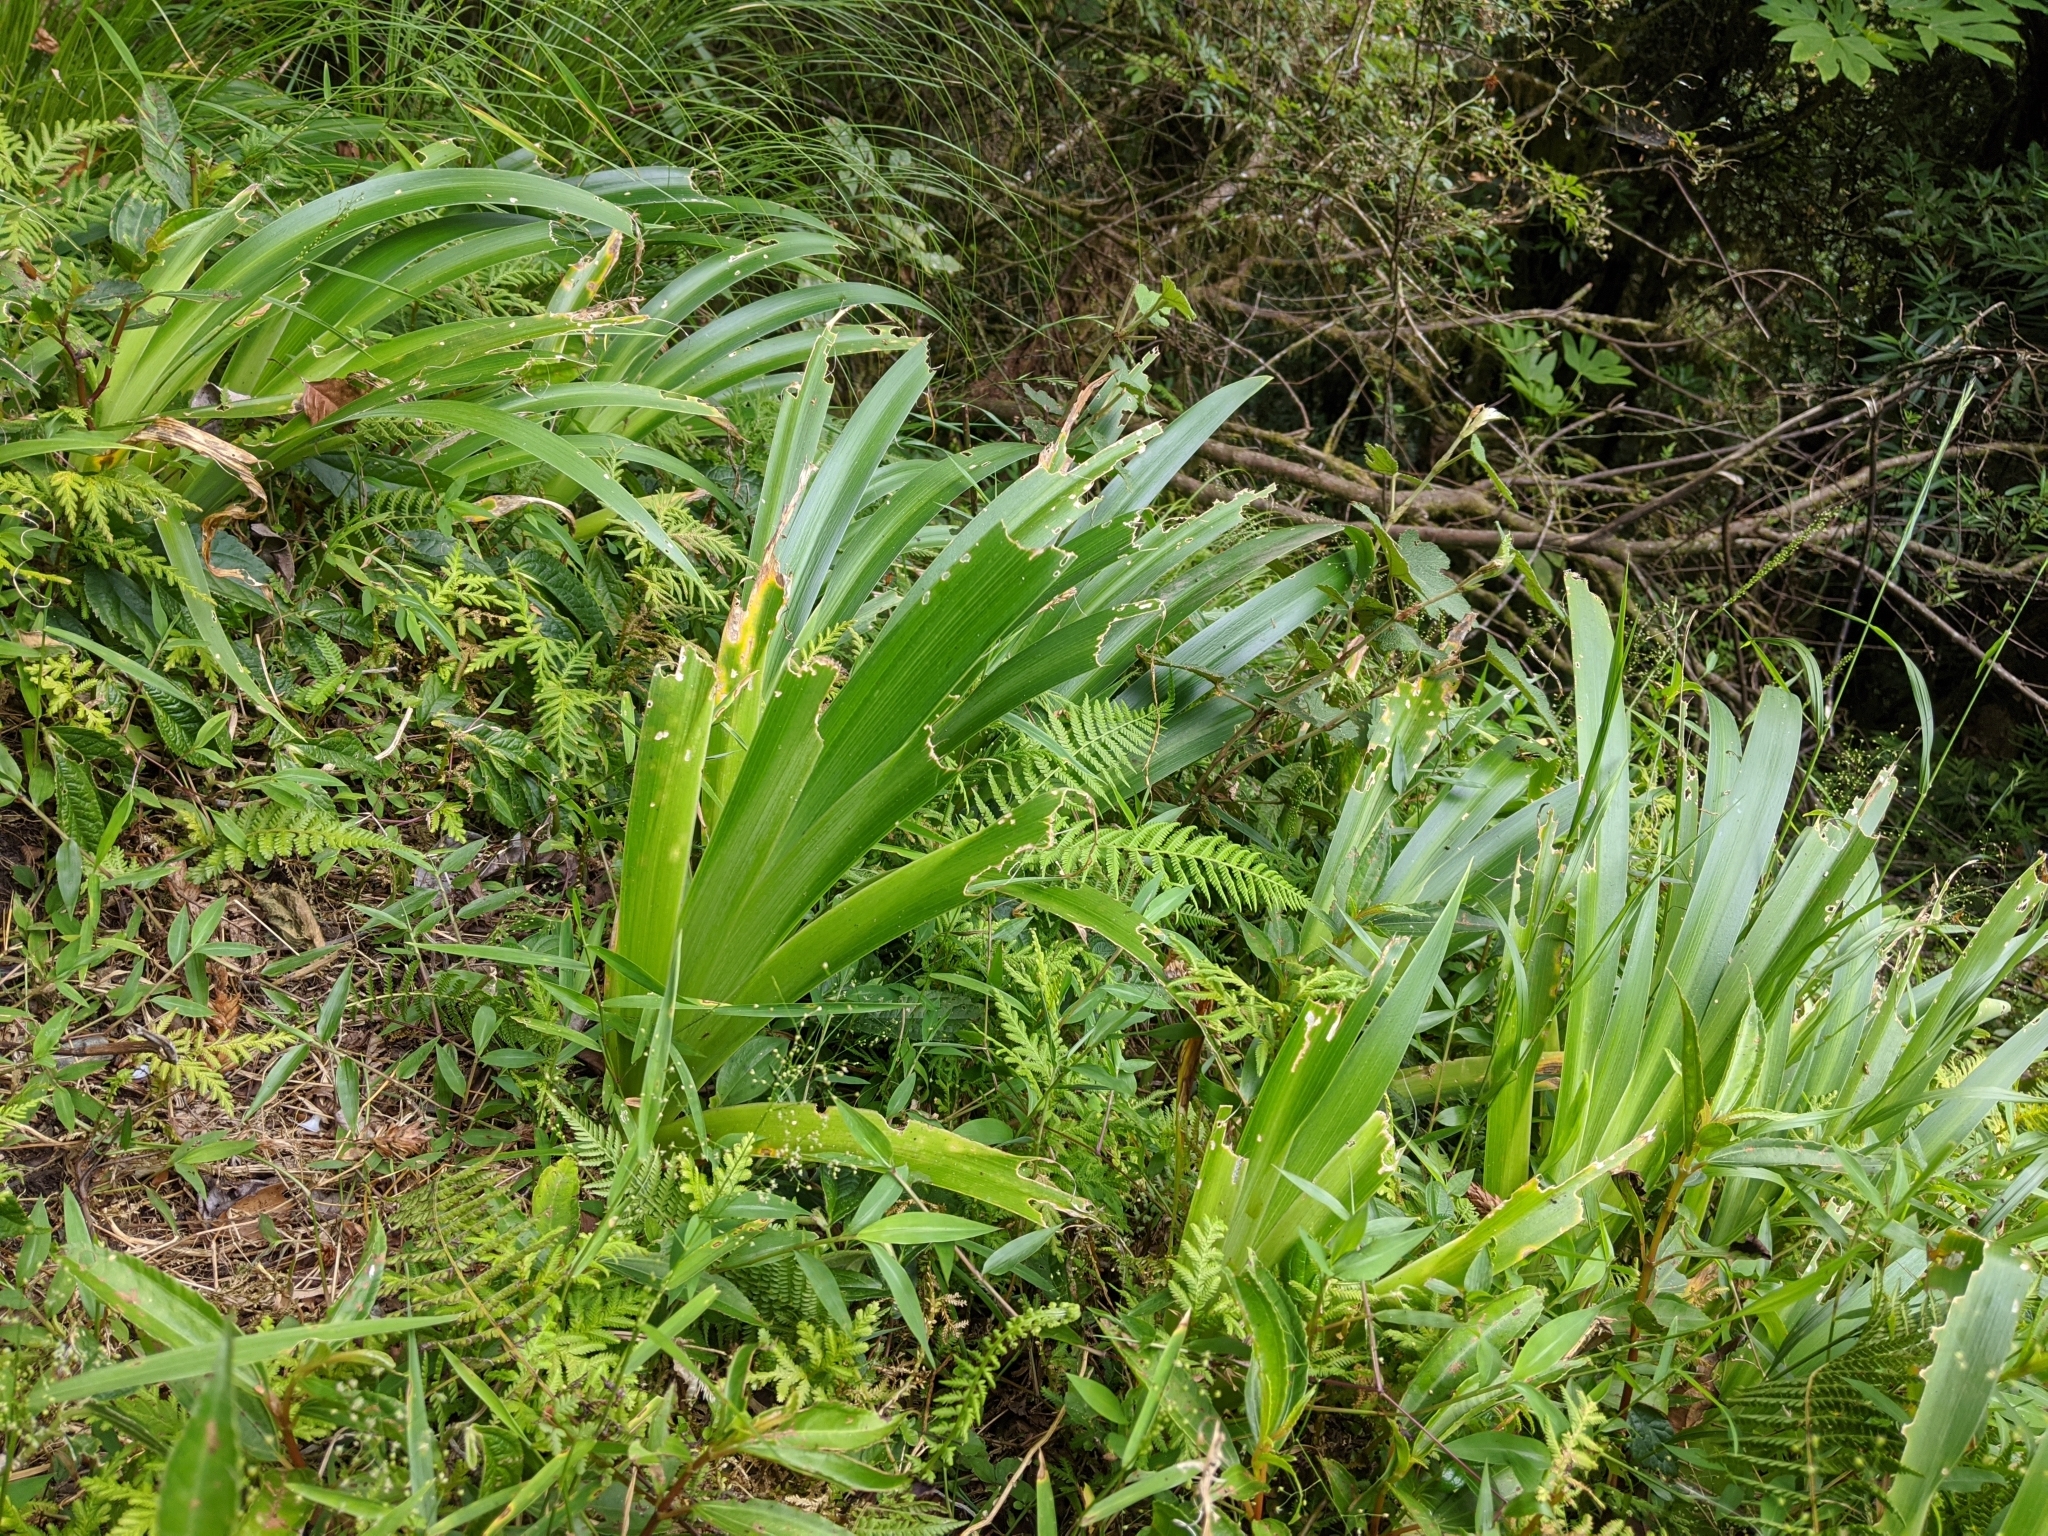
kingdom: Plantae
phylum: Tracheophyta
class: Liliopsida
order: Asparagales
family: Iridaceae
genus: Iris
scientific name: Iris formosana
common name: Taiwan iris
